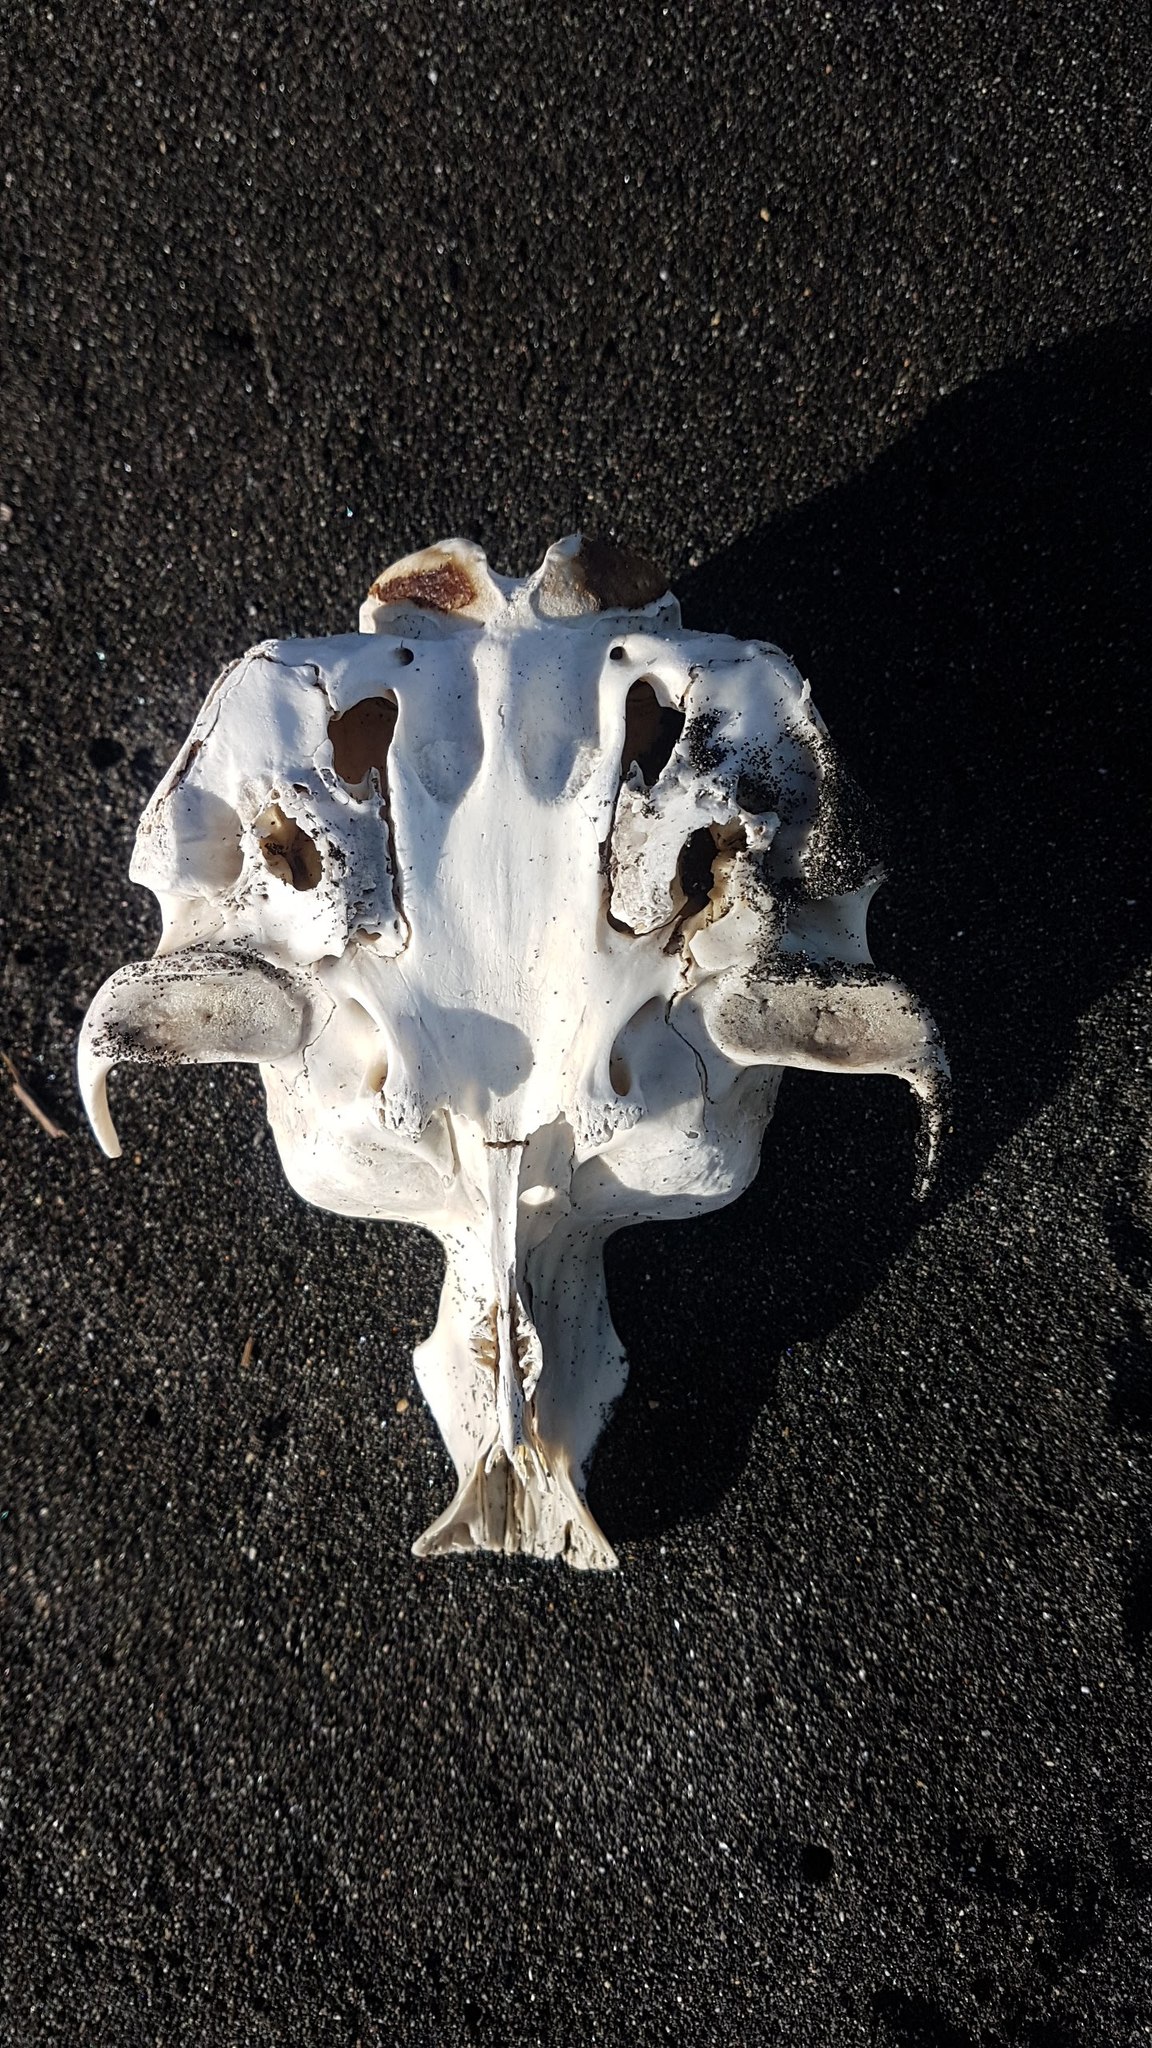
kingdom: Animalia
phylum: Chordata
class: Mammalia
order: Carnivora
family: Otariidae
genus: Arctocephalus
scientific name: Arctocephalus forsteri
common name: New zealand fur seal
